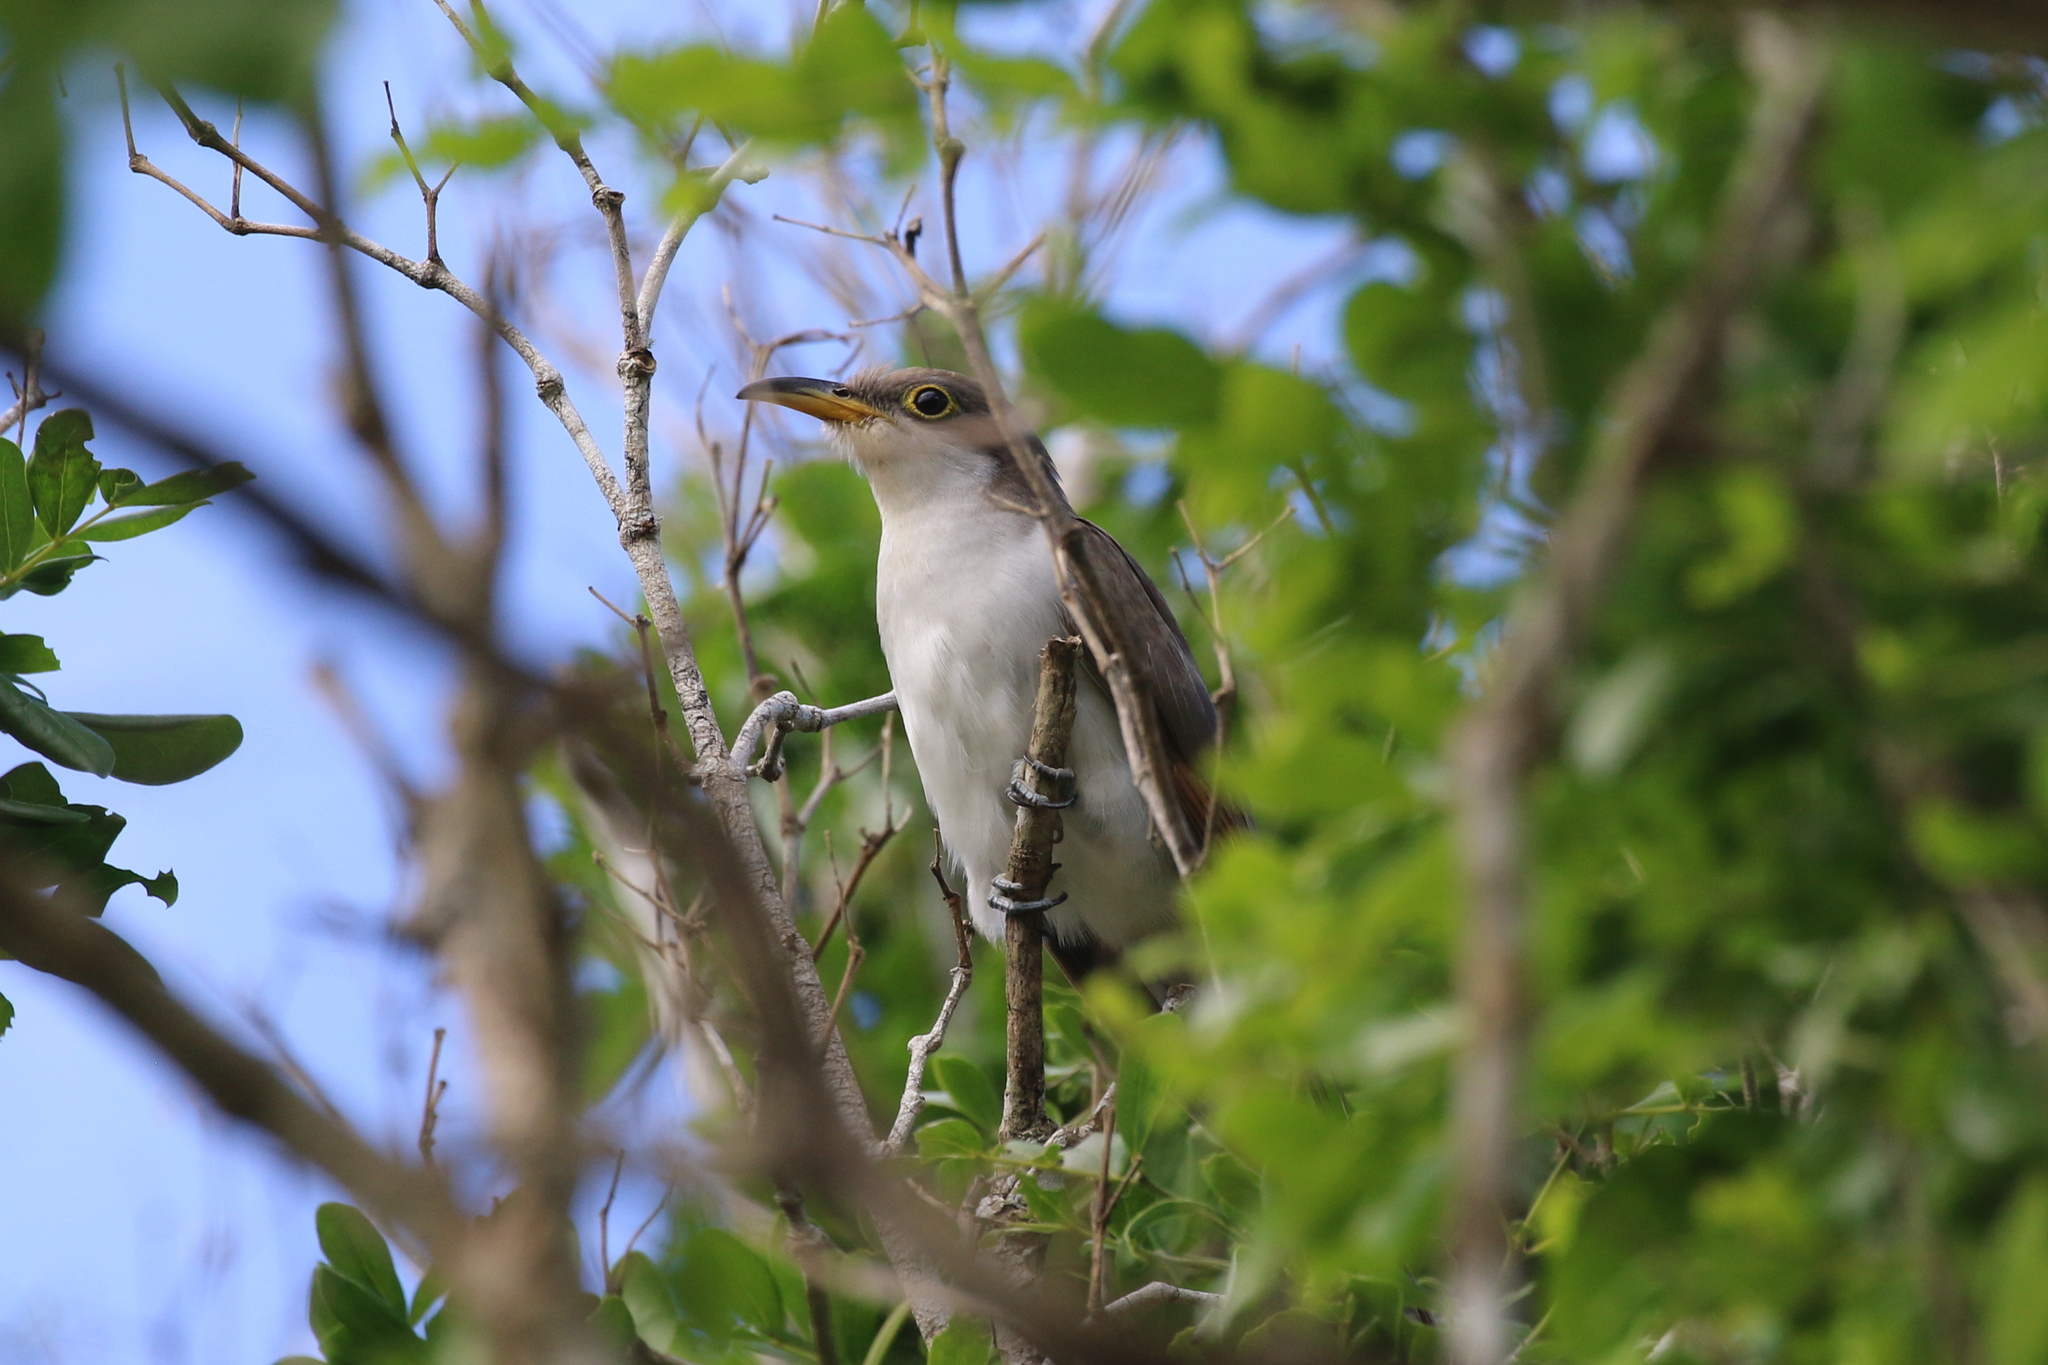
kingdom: Animalia
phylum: Chordata
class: Aves
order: Cuculiformes
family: Cuculidae
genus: Coccyzus
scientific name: Coccyzus americanus
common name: Yellow-billed cuckoo
